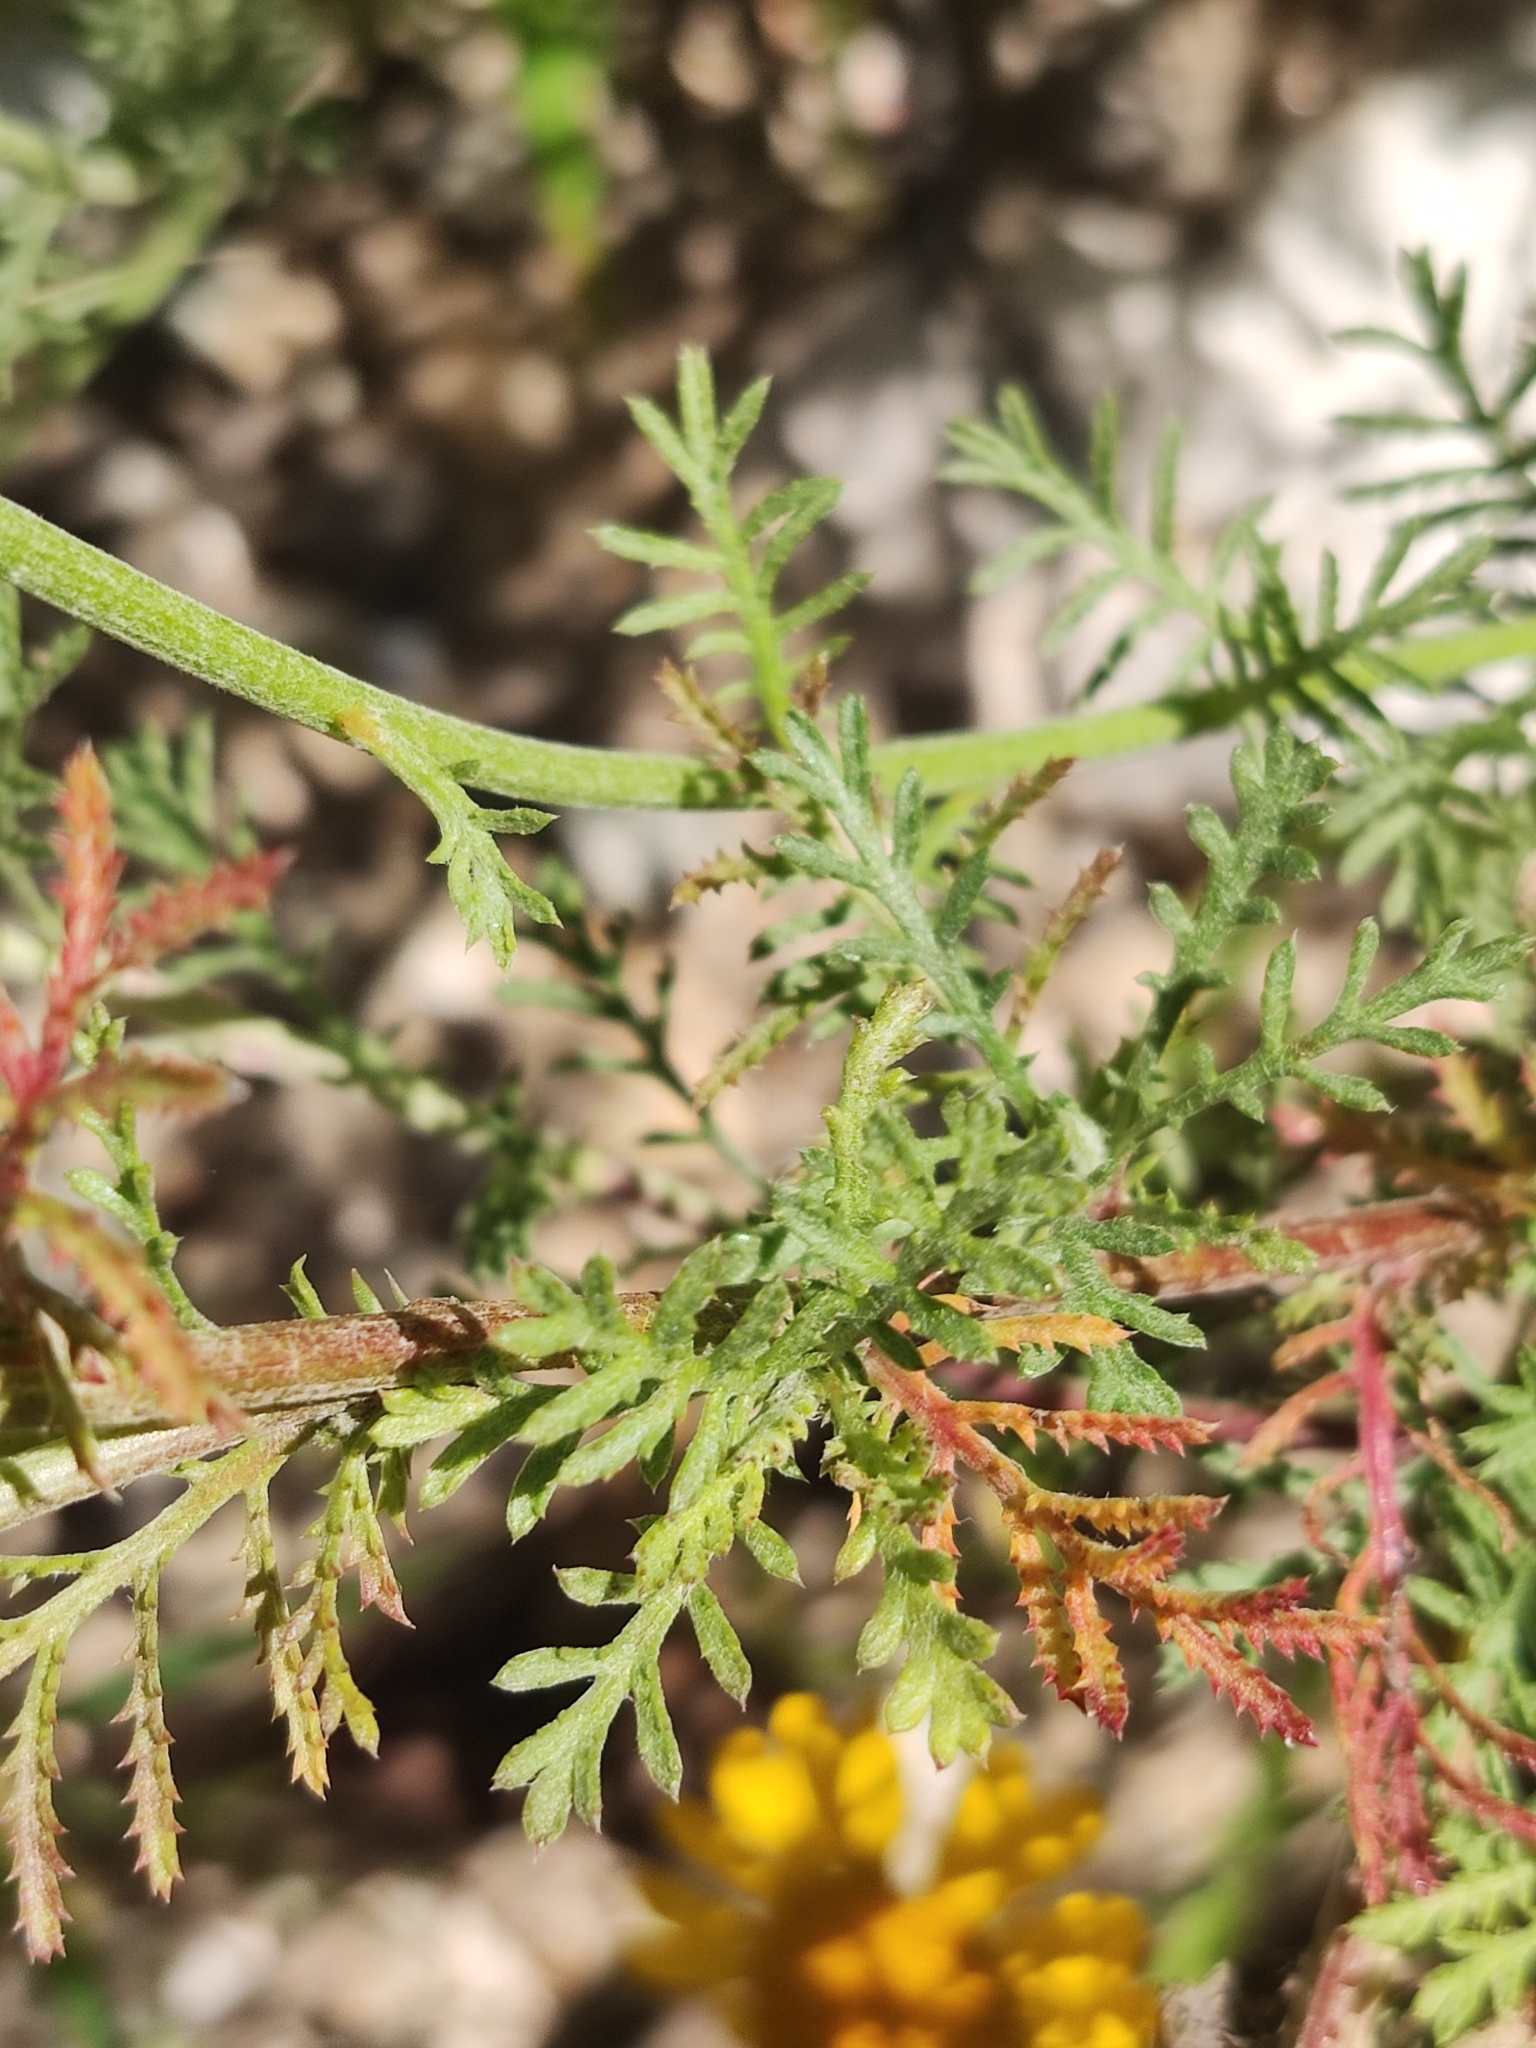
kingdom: Plantae
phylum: Tracheophyta
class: Magnoliopsida
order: Asterales
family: Asteraceae
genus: Cota
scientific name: Cota tinctoria
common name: Golden chamomile
